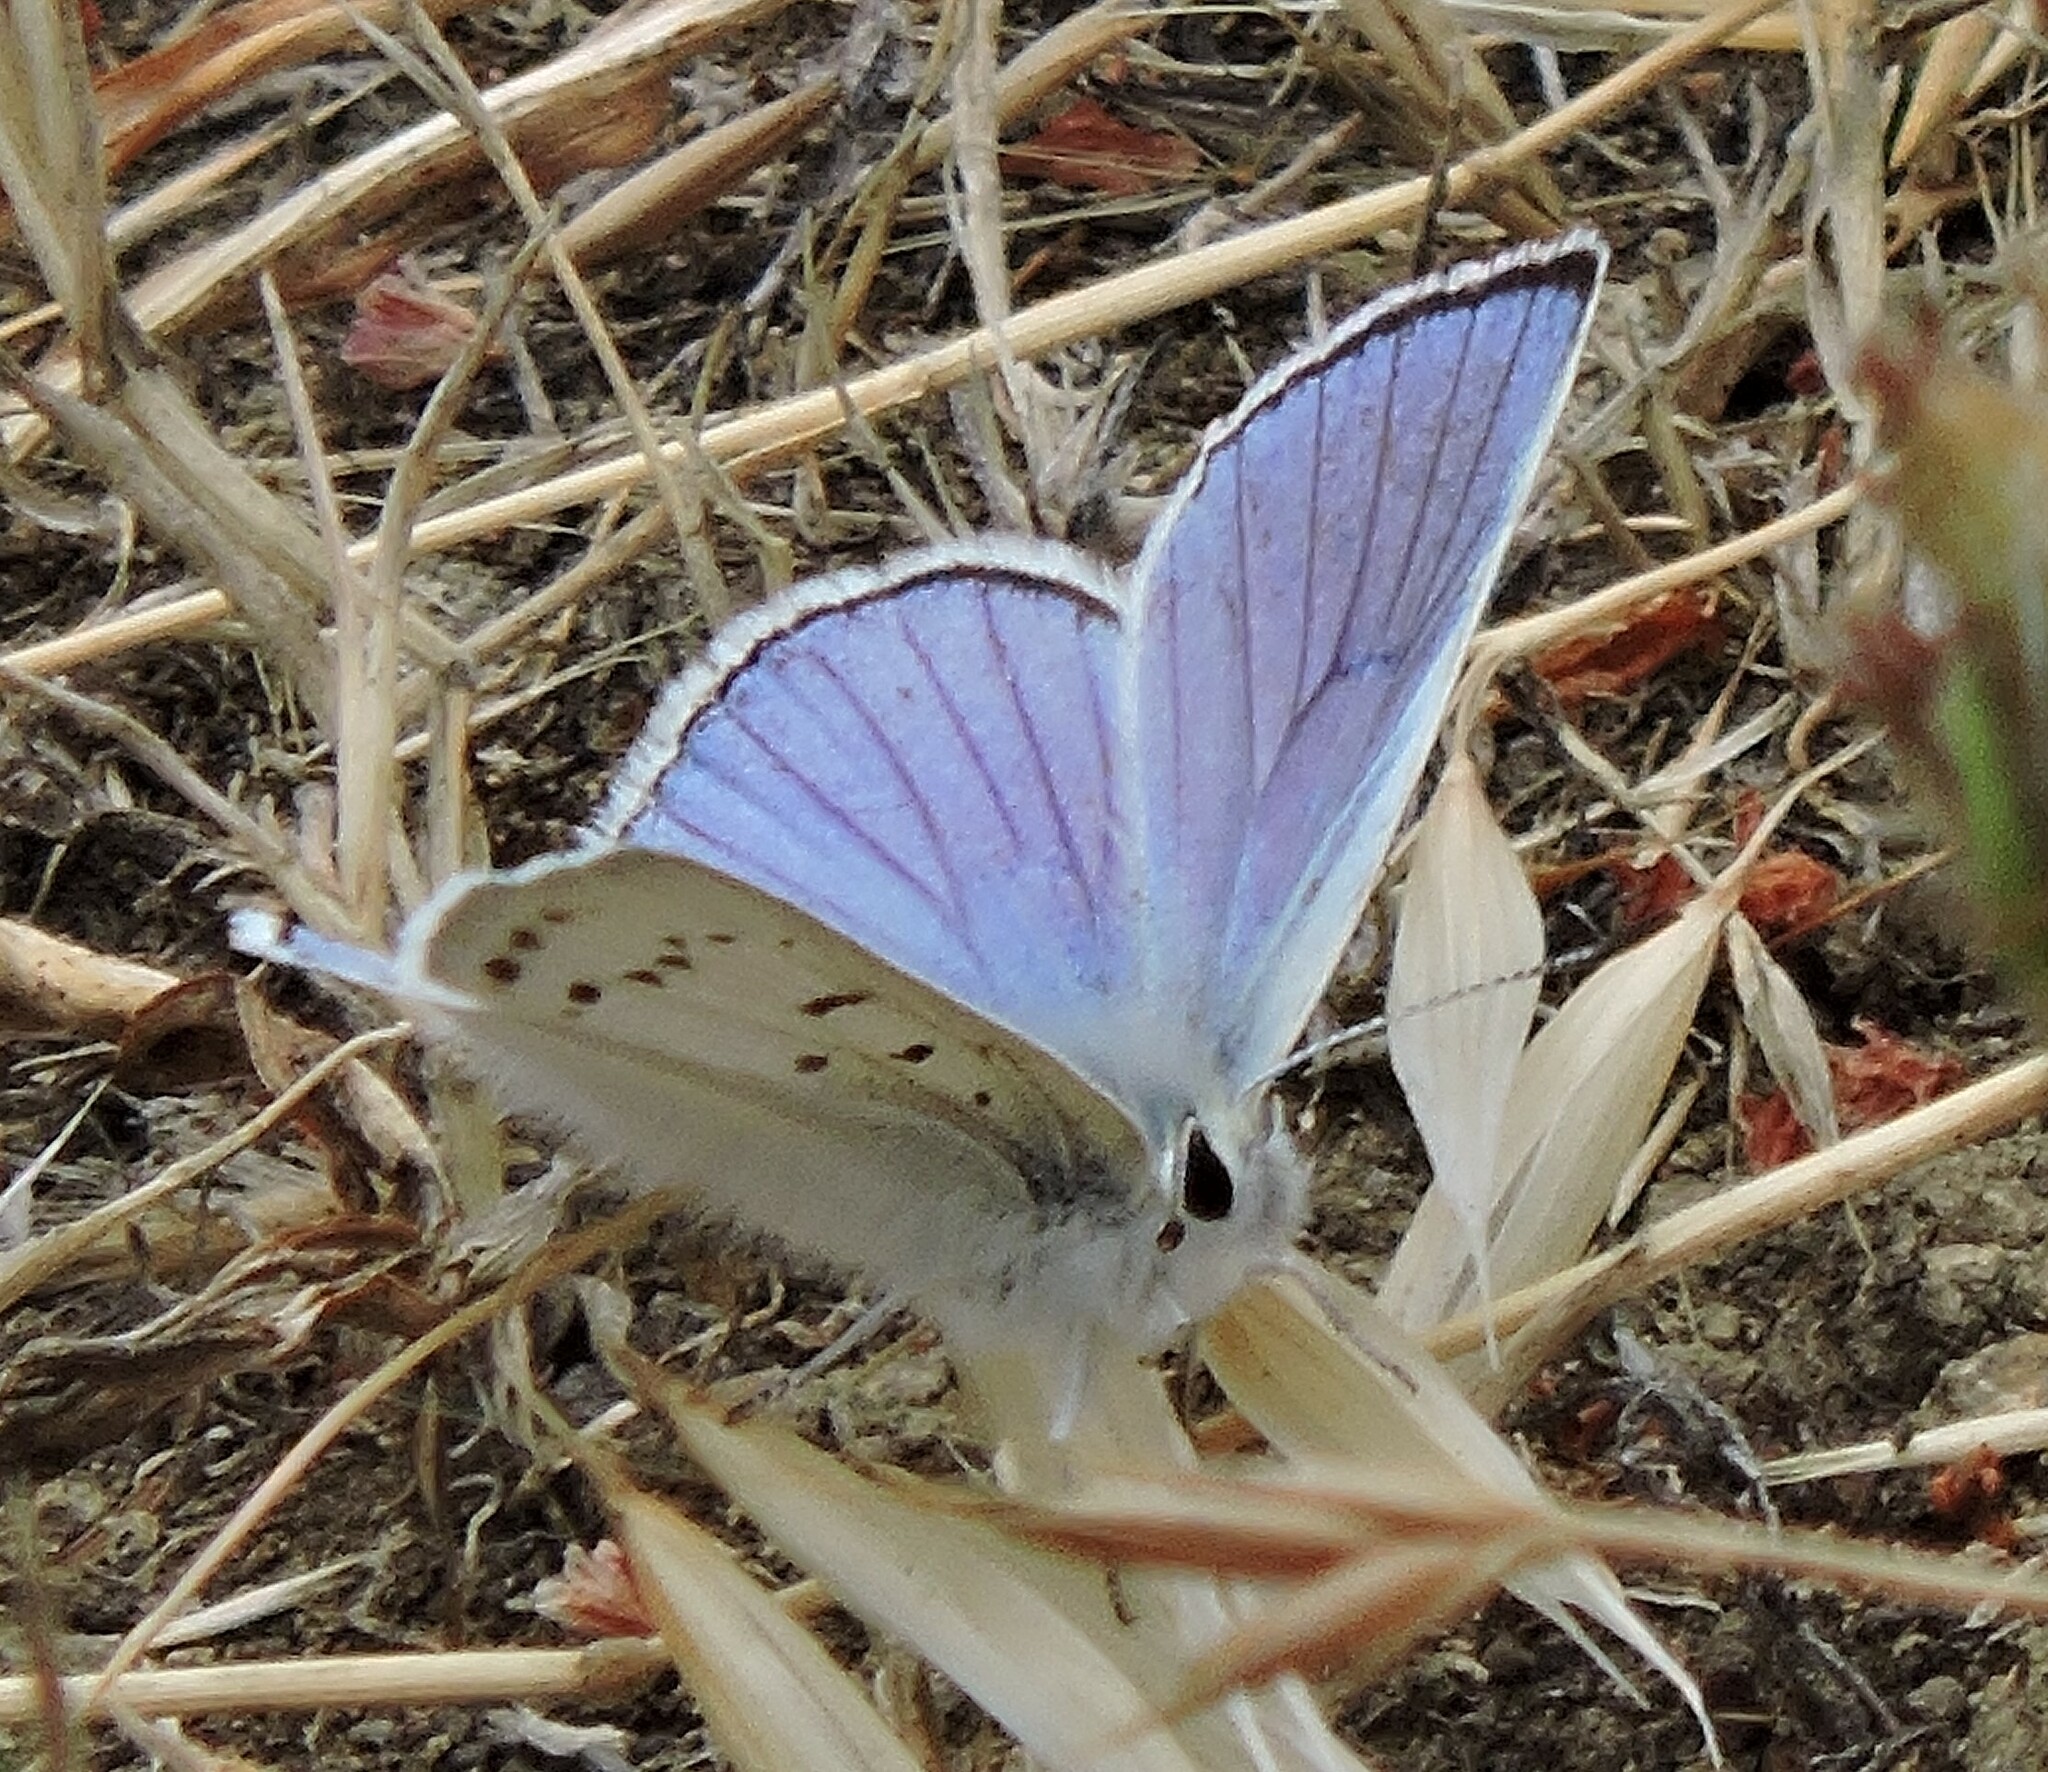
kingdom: Animalia
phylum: Arthropoda
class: Insecta
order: Lepidoptera
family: Lycaenidae
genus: Tharsalea
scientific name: Tharsalea heteronea
